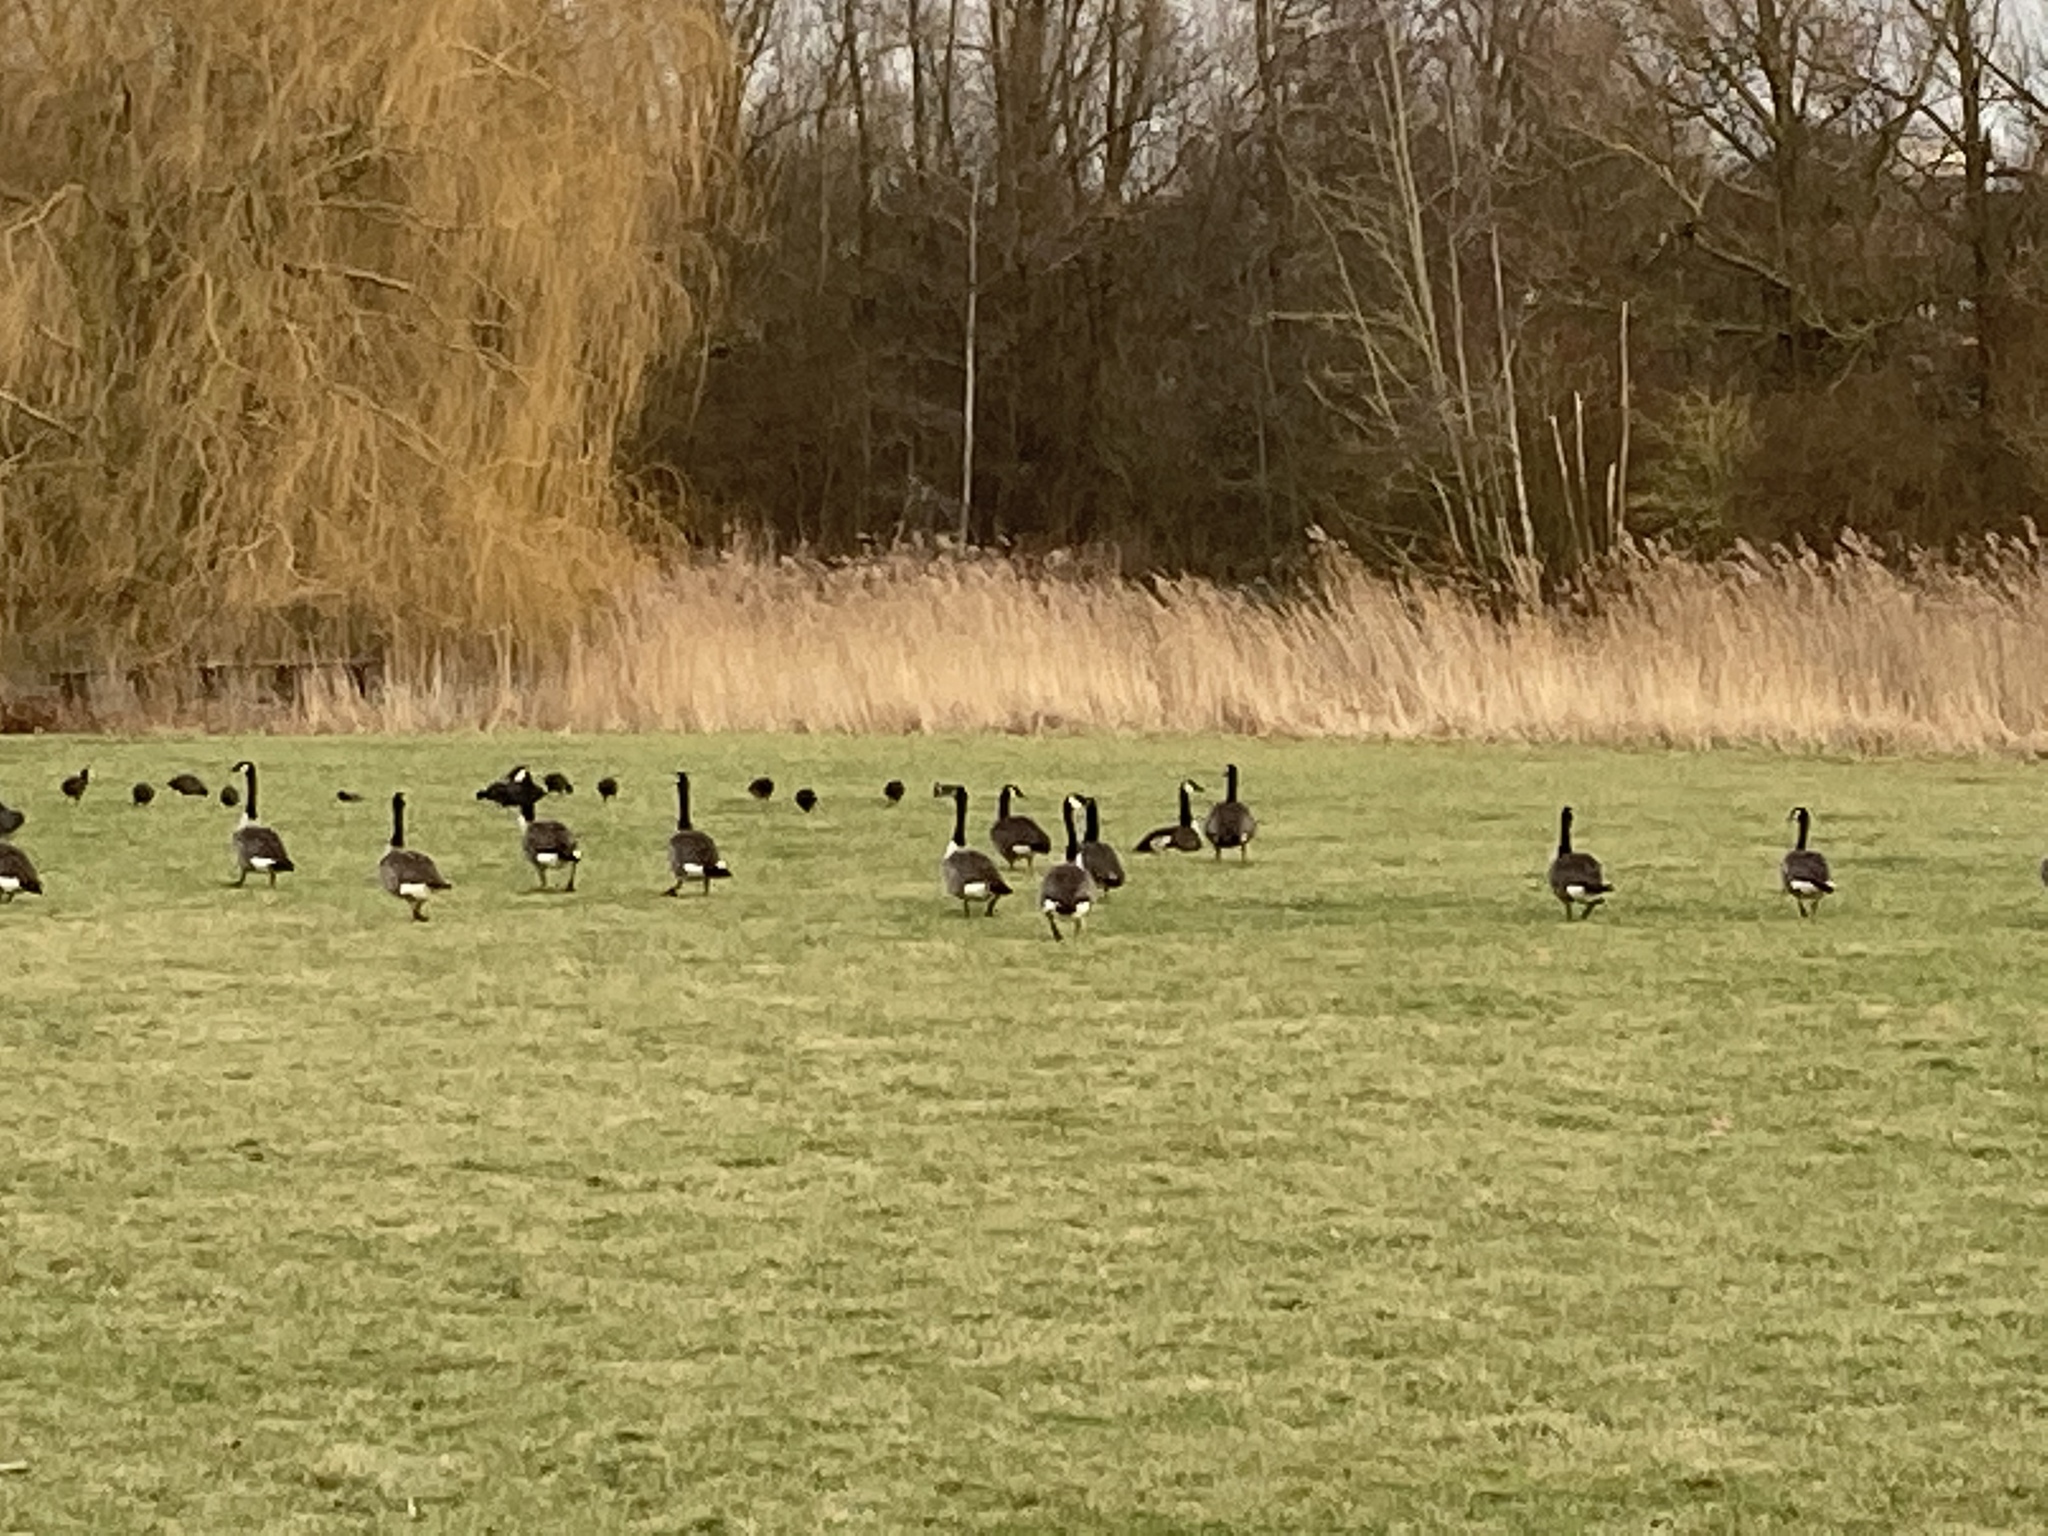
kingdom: Animalia
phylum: Chordata
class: Aves
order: Gruiformes
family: Rallidae
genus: Fulica
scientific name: Fulica atra
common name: Eurasian coot
